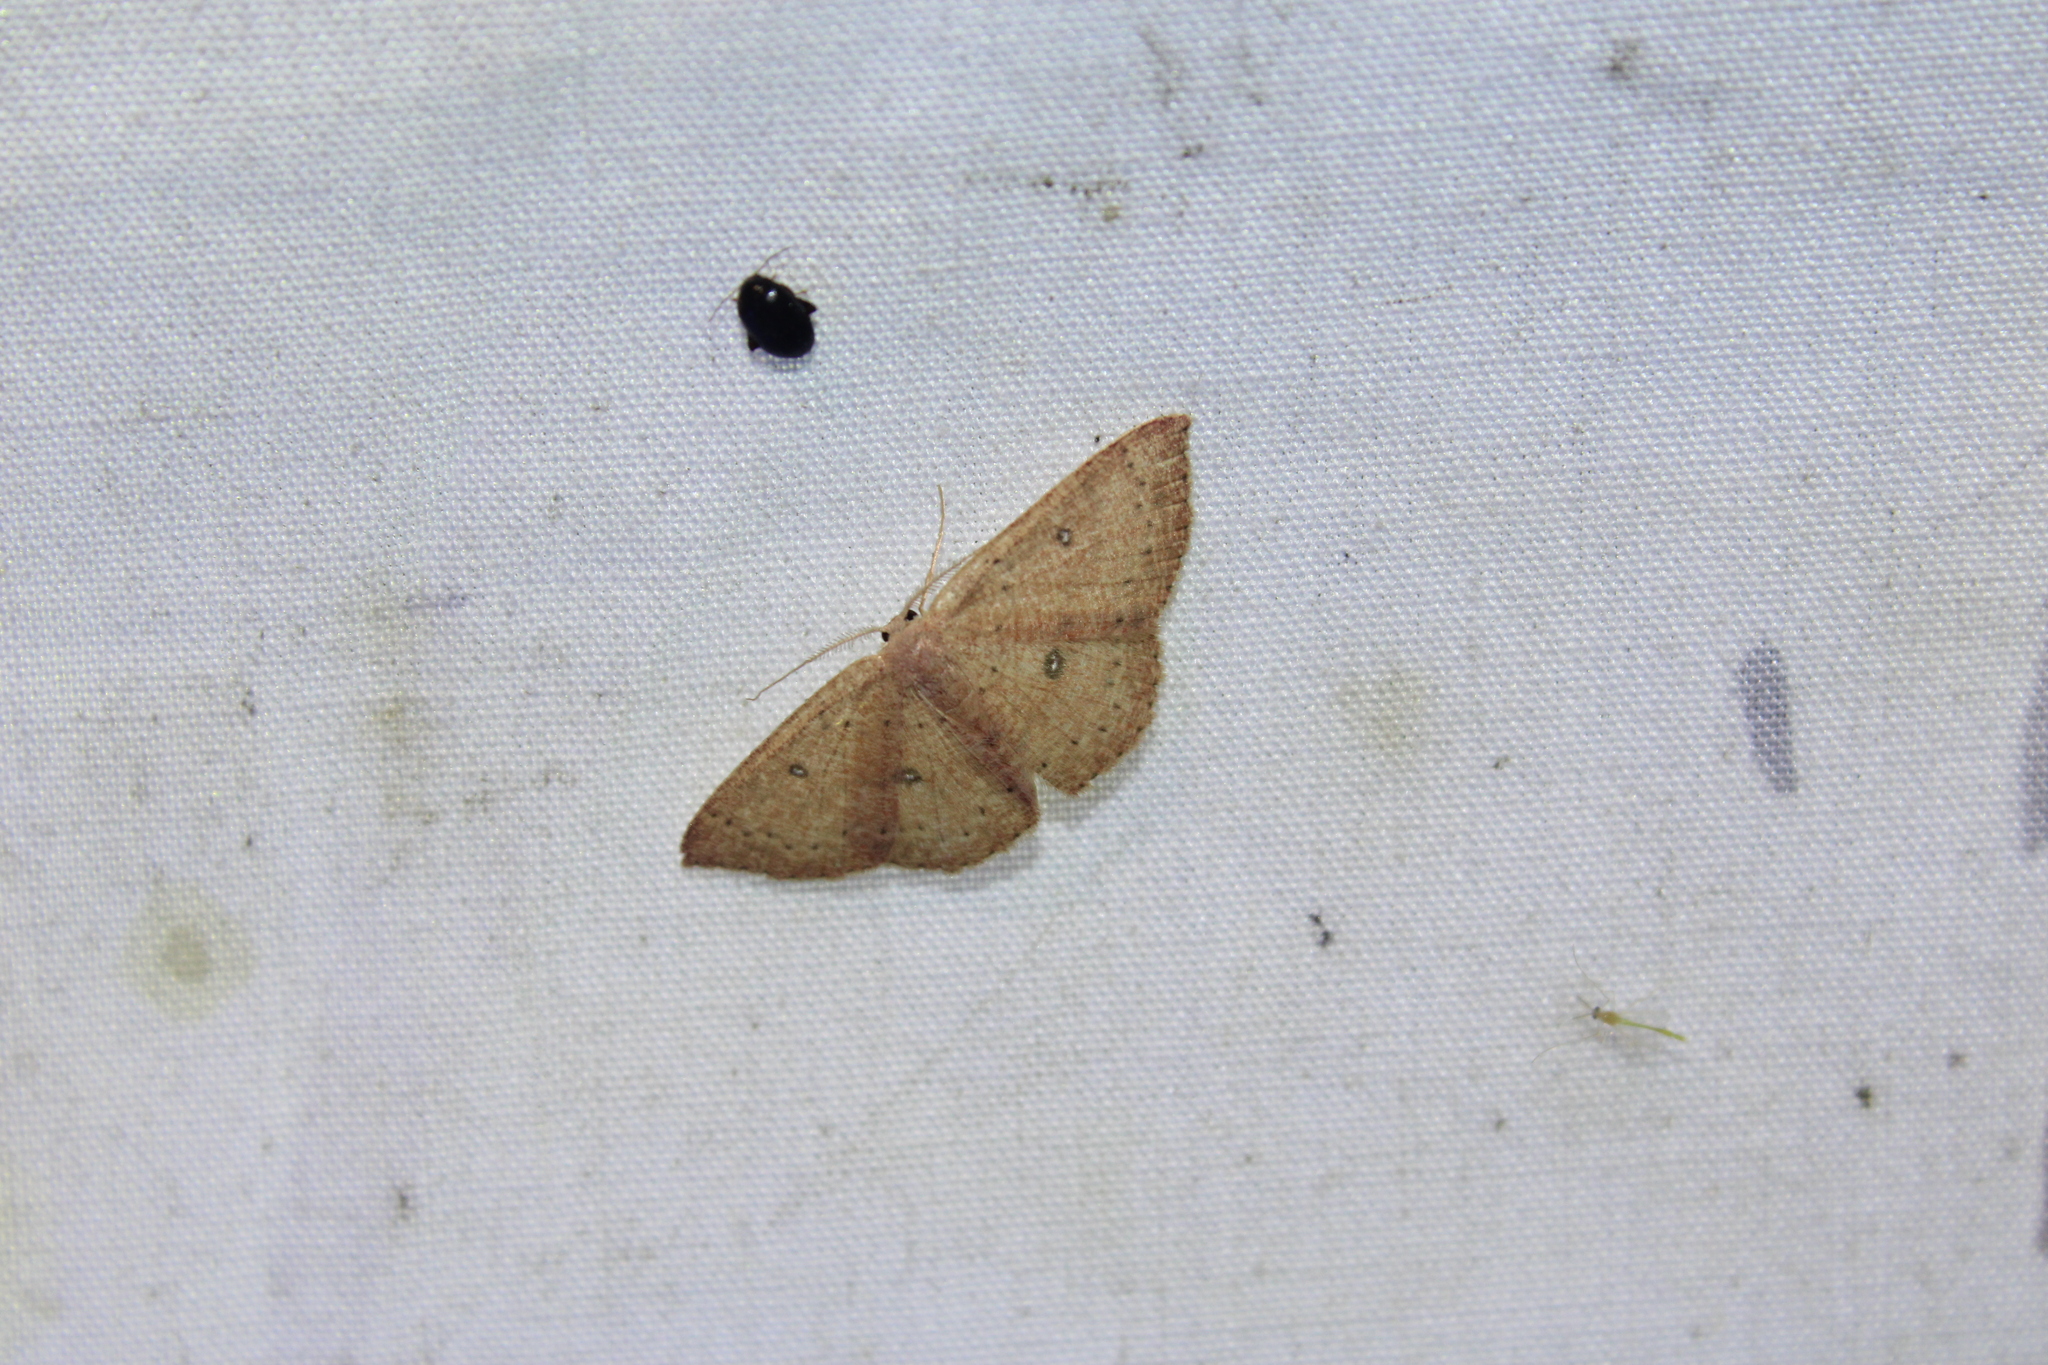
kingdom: Animalia
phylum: Arthropoda
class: Insecta
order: Lepidoptera
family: Geometridae
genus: Cyclophora
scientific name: Cyclophora packardi
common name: Packard's wave
